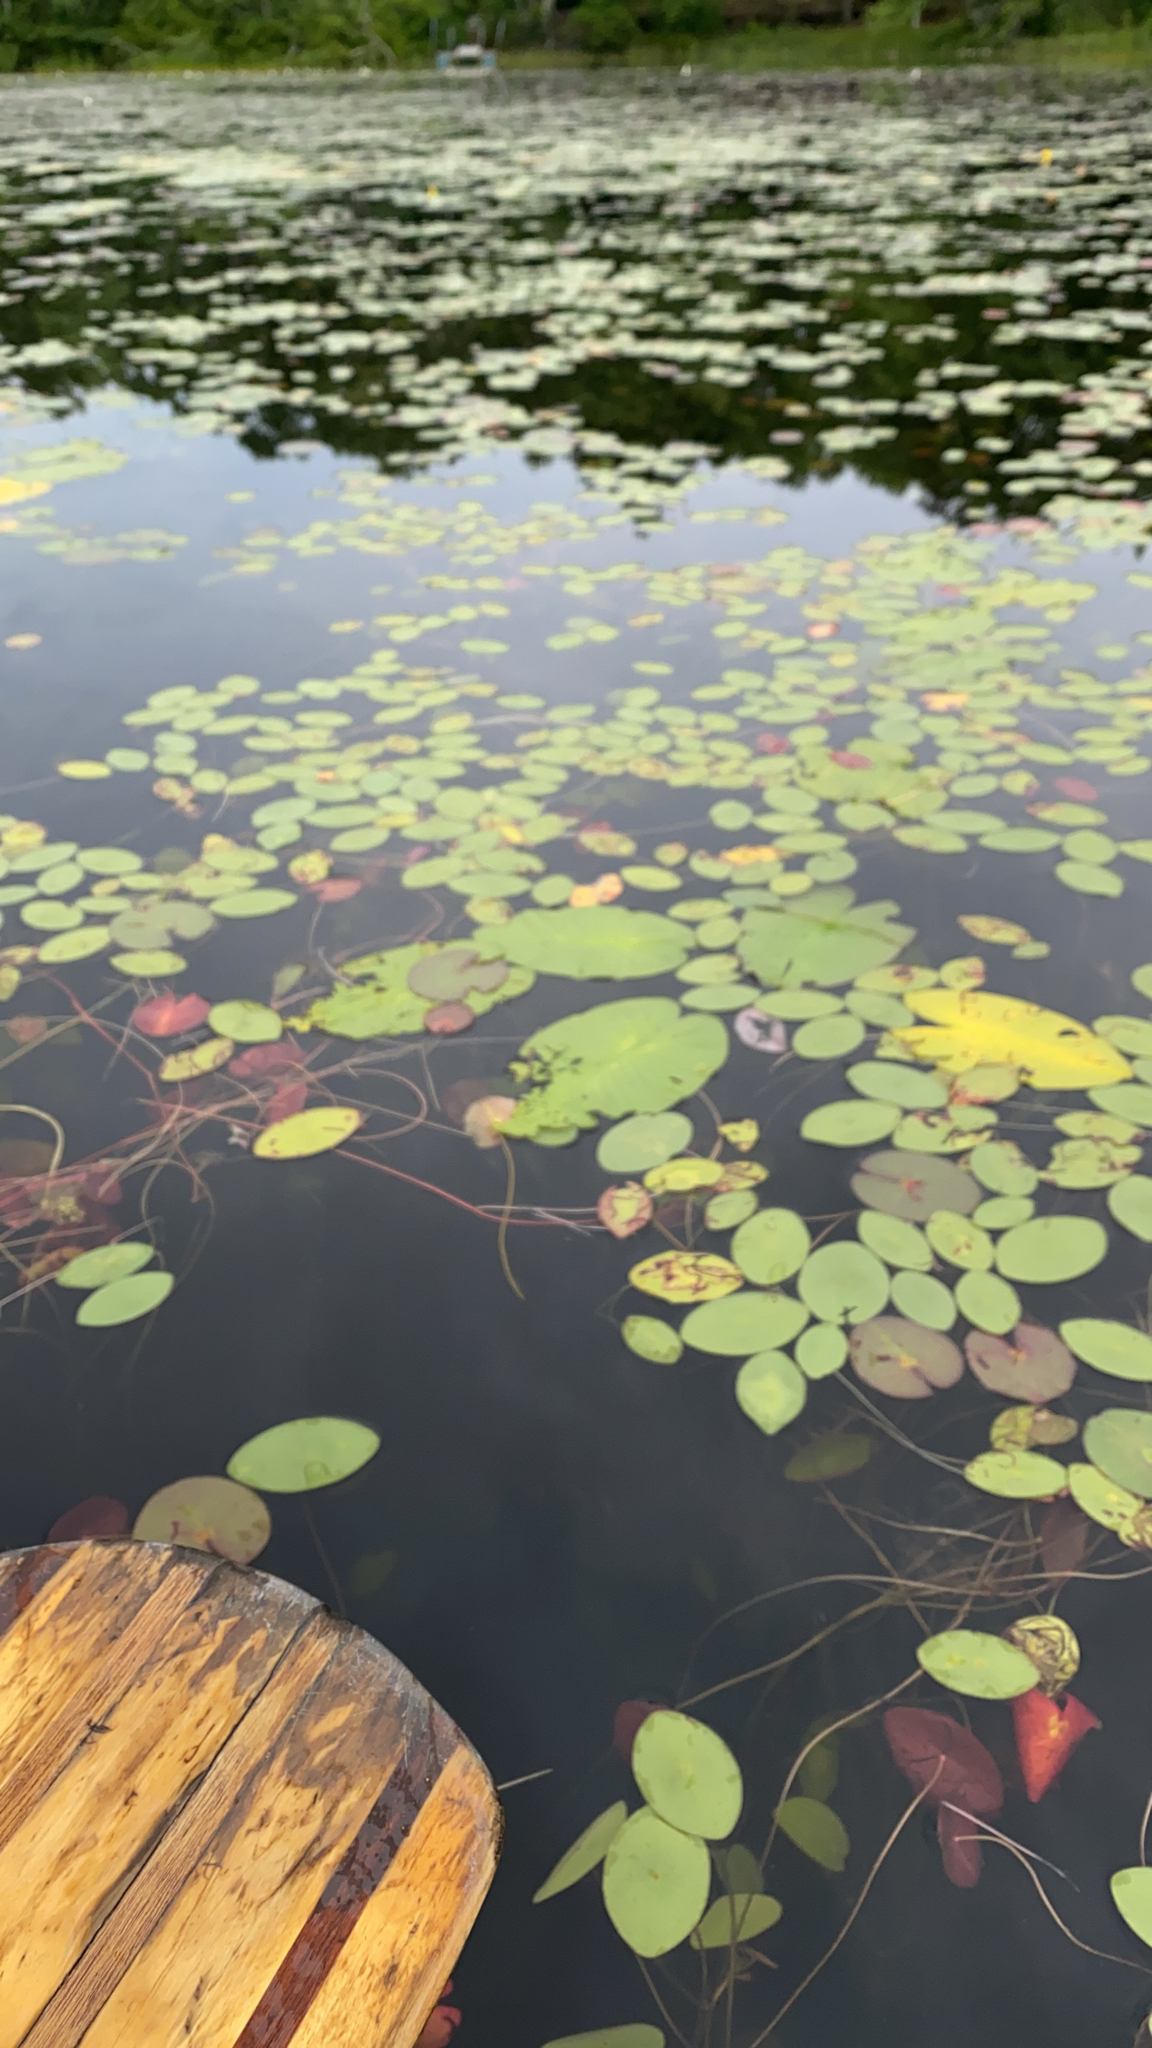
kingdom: Plantae
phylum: Tracheophyta
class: Magnoliopsida
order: Nymphaeales
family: Cabombaceae
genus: Brasenia
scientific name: Brasenia schreberi
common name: Water-shield
